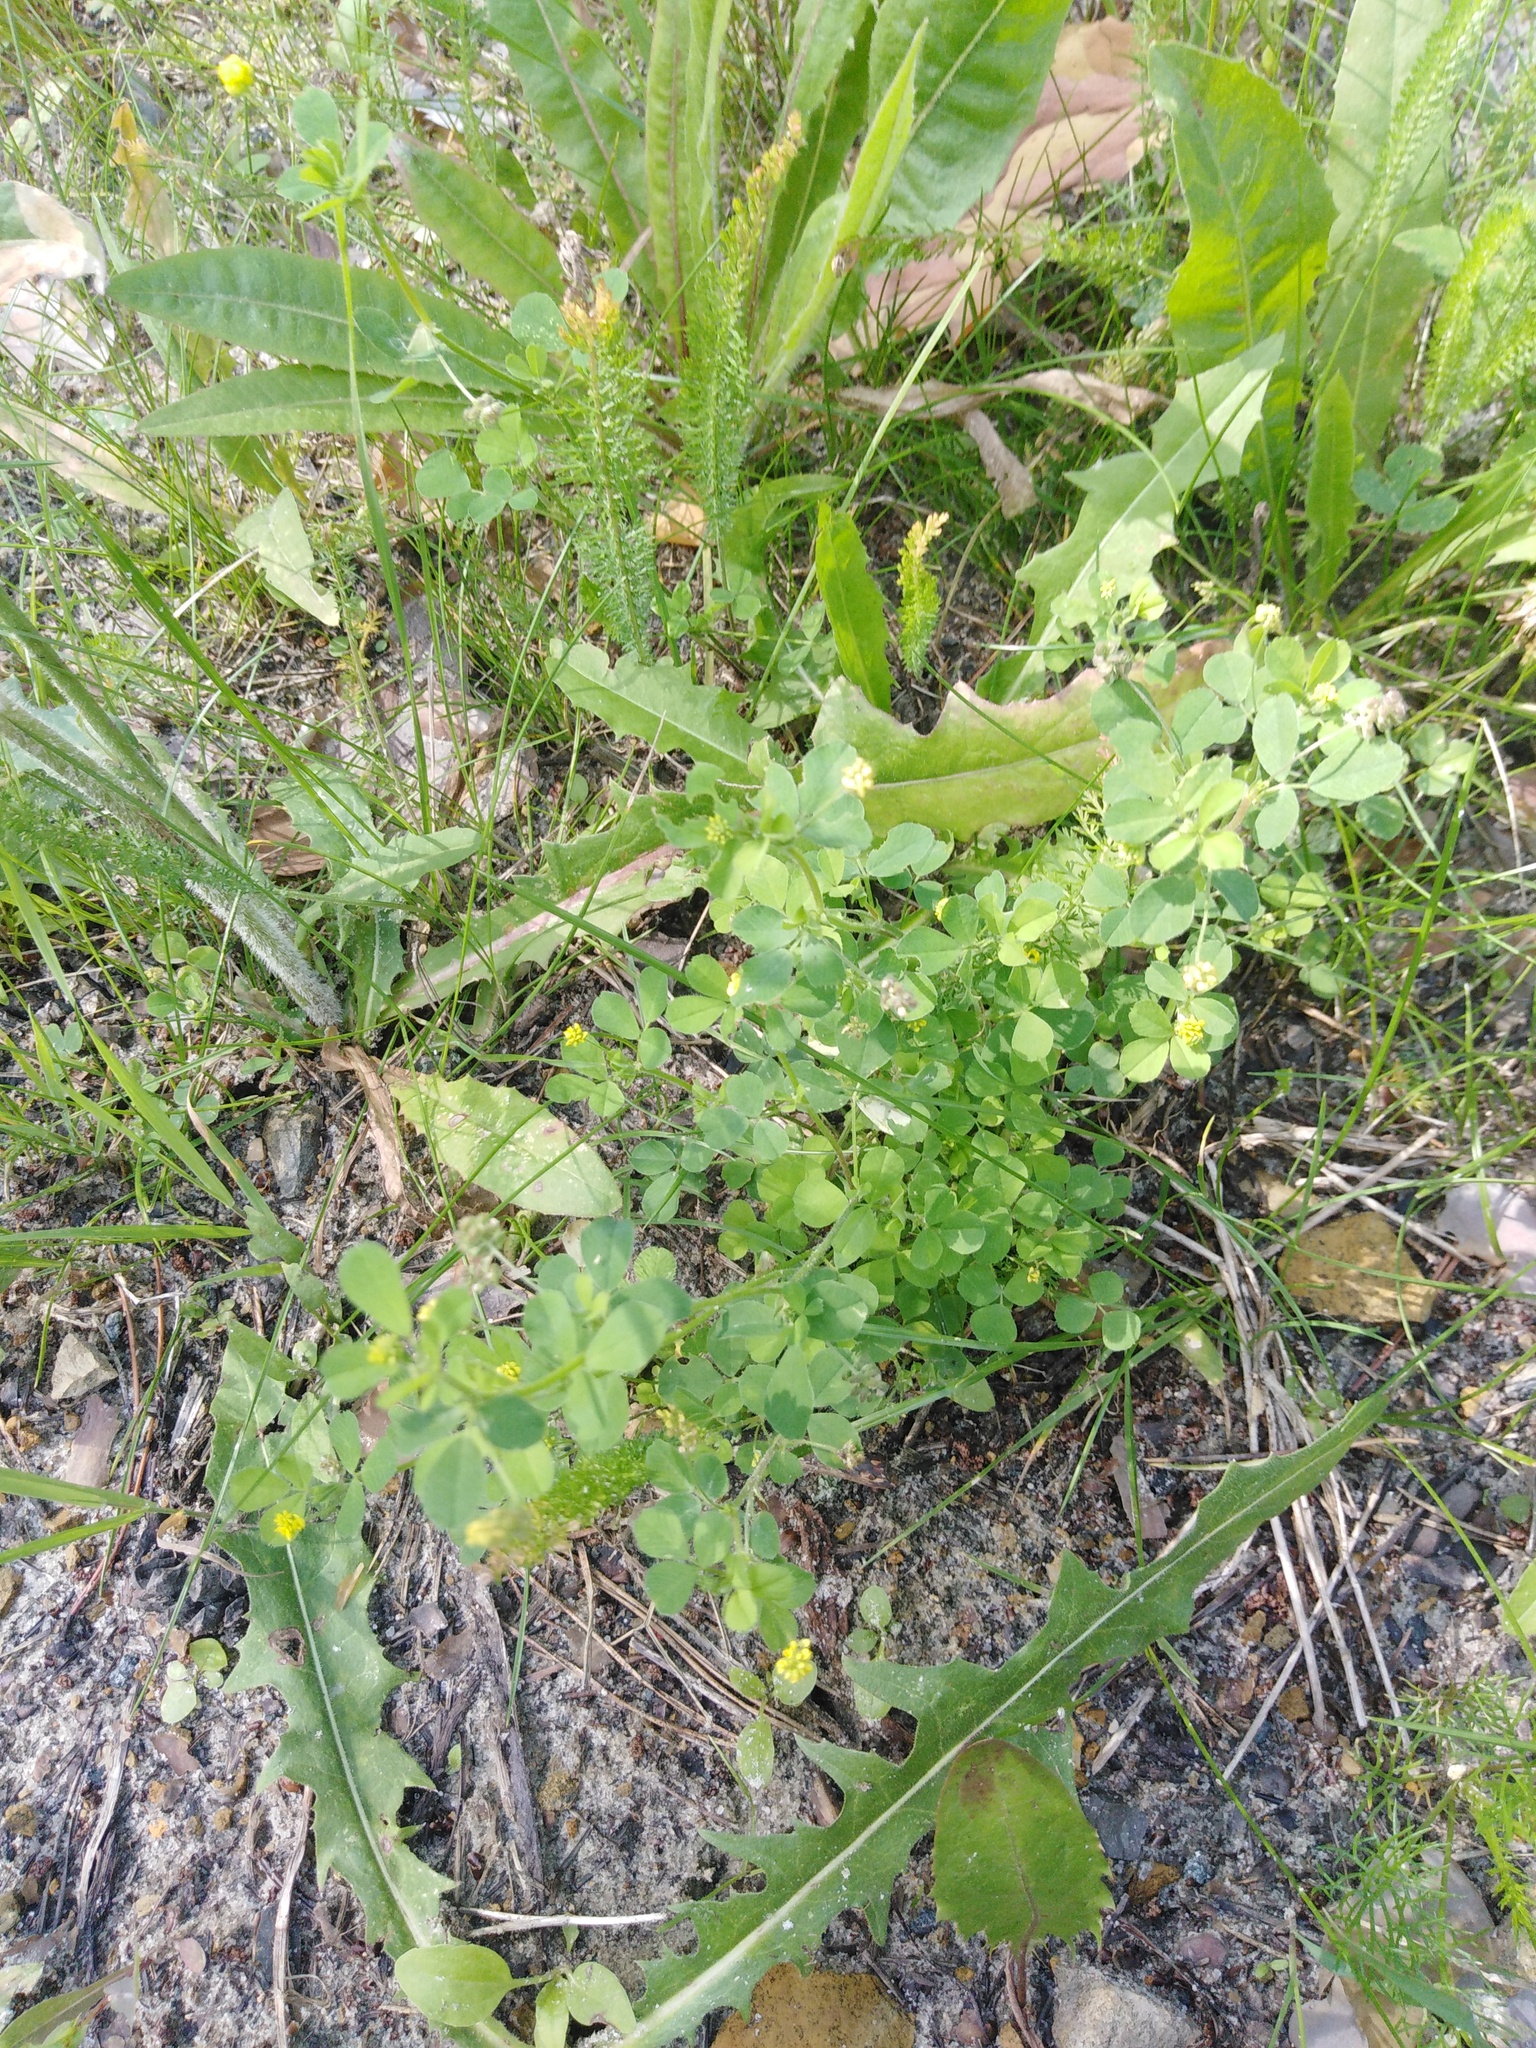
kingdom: Plantae
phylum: Tracheophyta
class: Magnoliopsida
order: Fabales
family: Fabaceae
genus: Medicago
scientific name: Medicago lupulina
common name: Black medick
